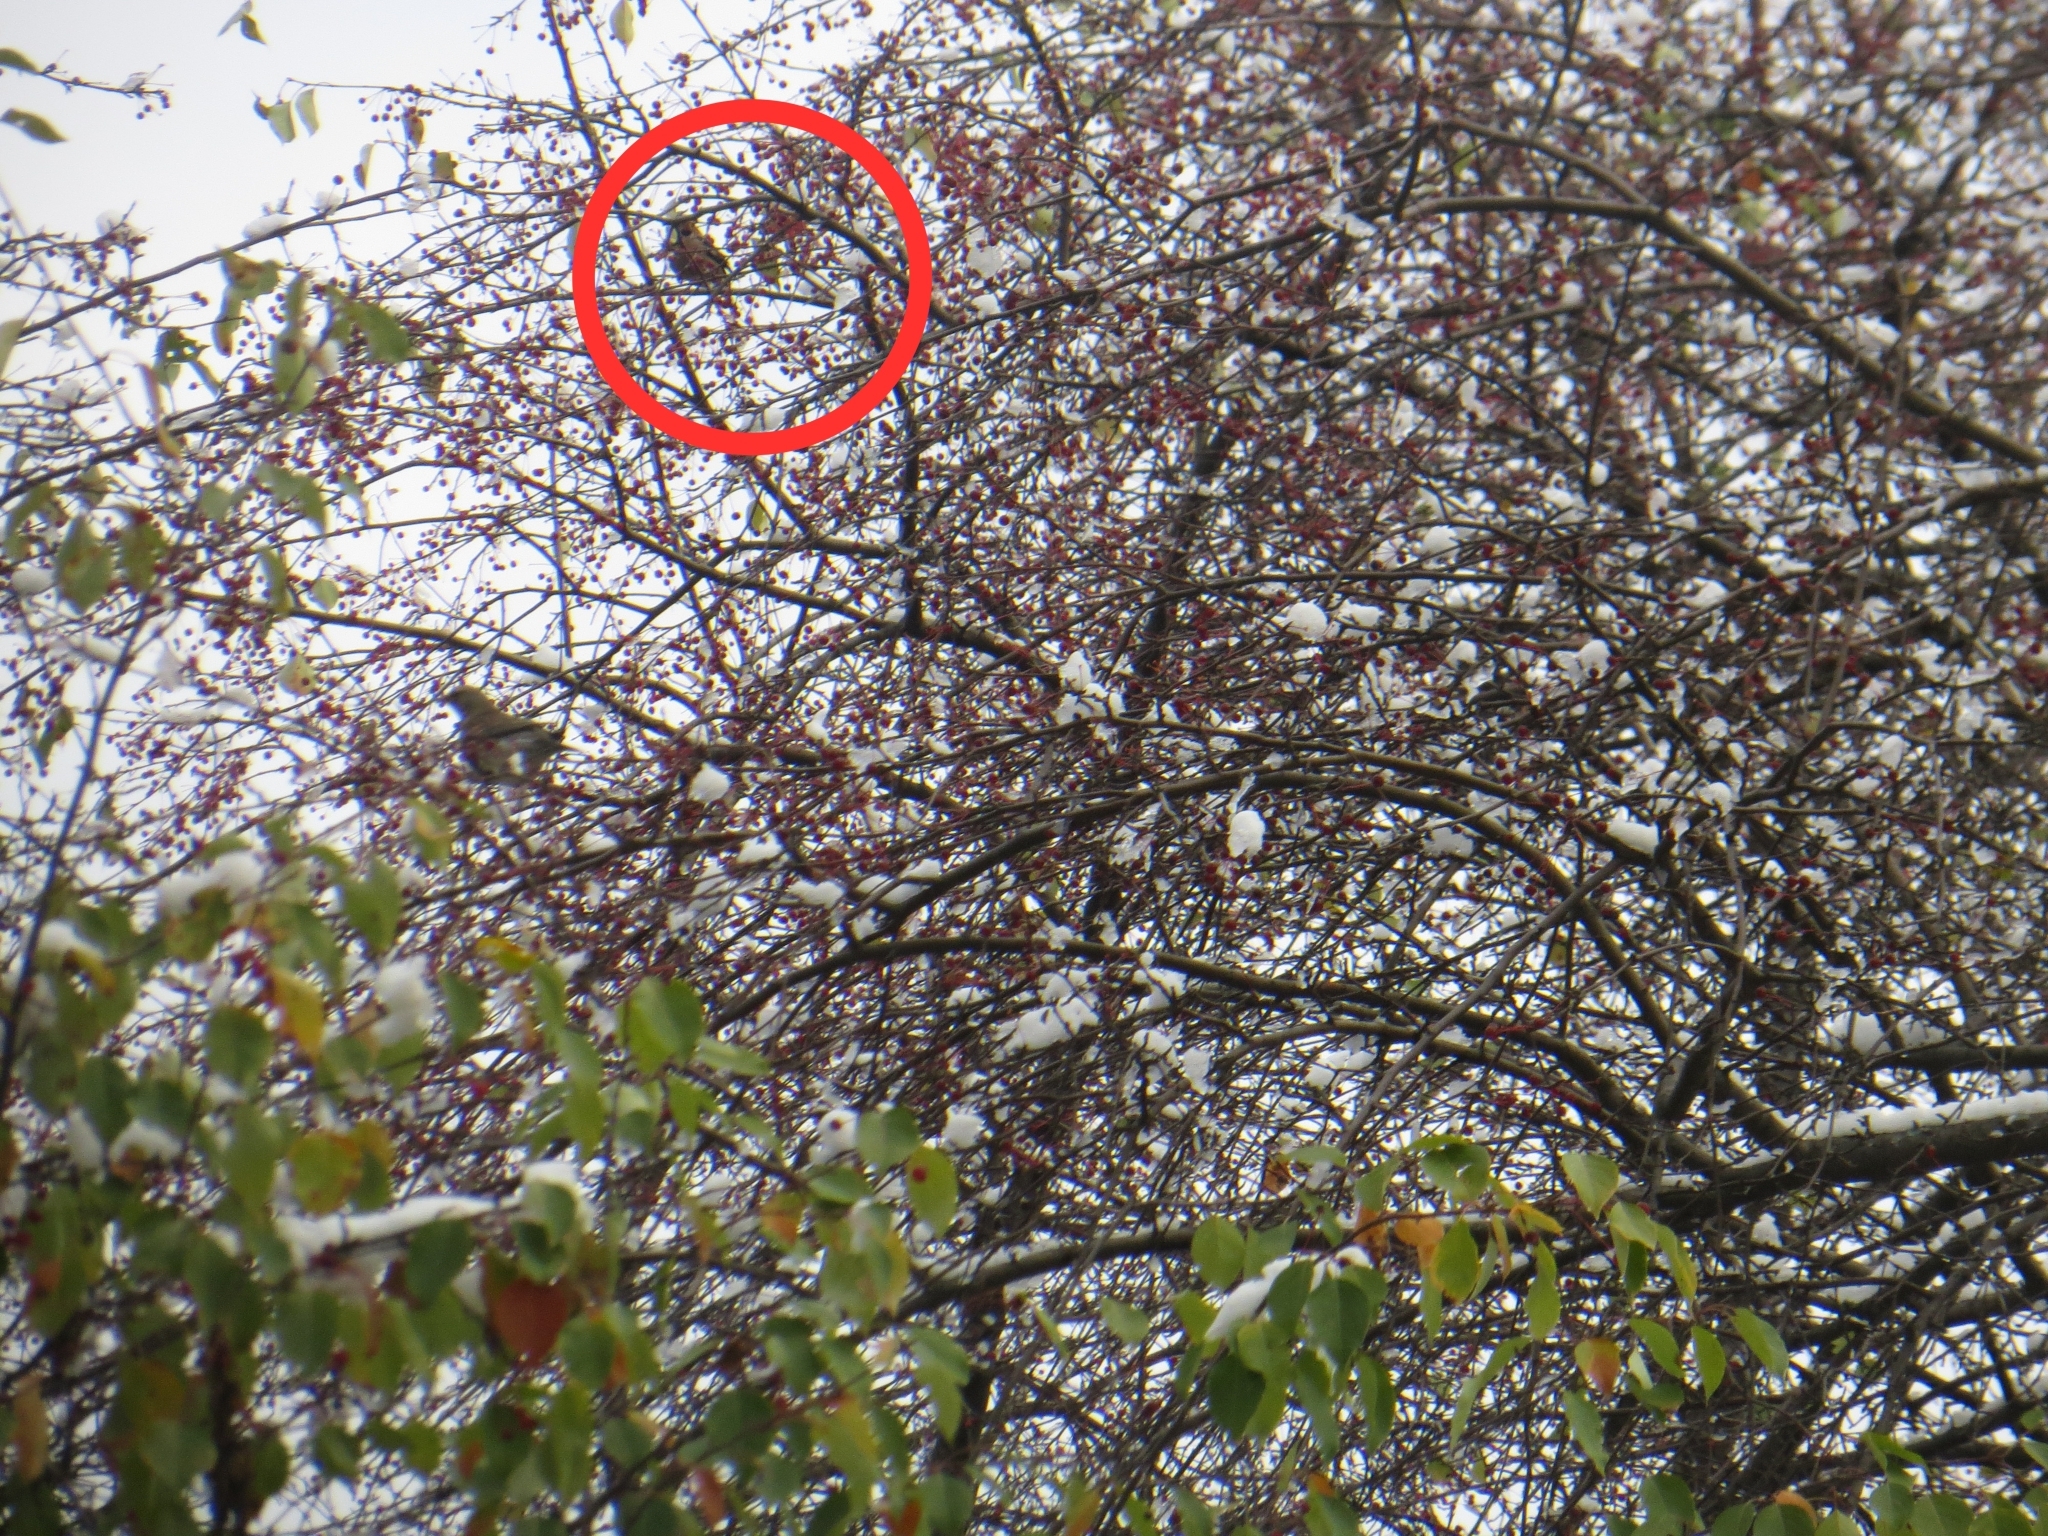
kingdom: Animalia
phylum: Chordata
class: Aves
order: Passeriformes
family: Fringillidae
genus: Coccothraustes
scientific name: Coccothraustes coccothraustes
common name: Hawfinch
